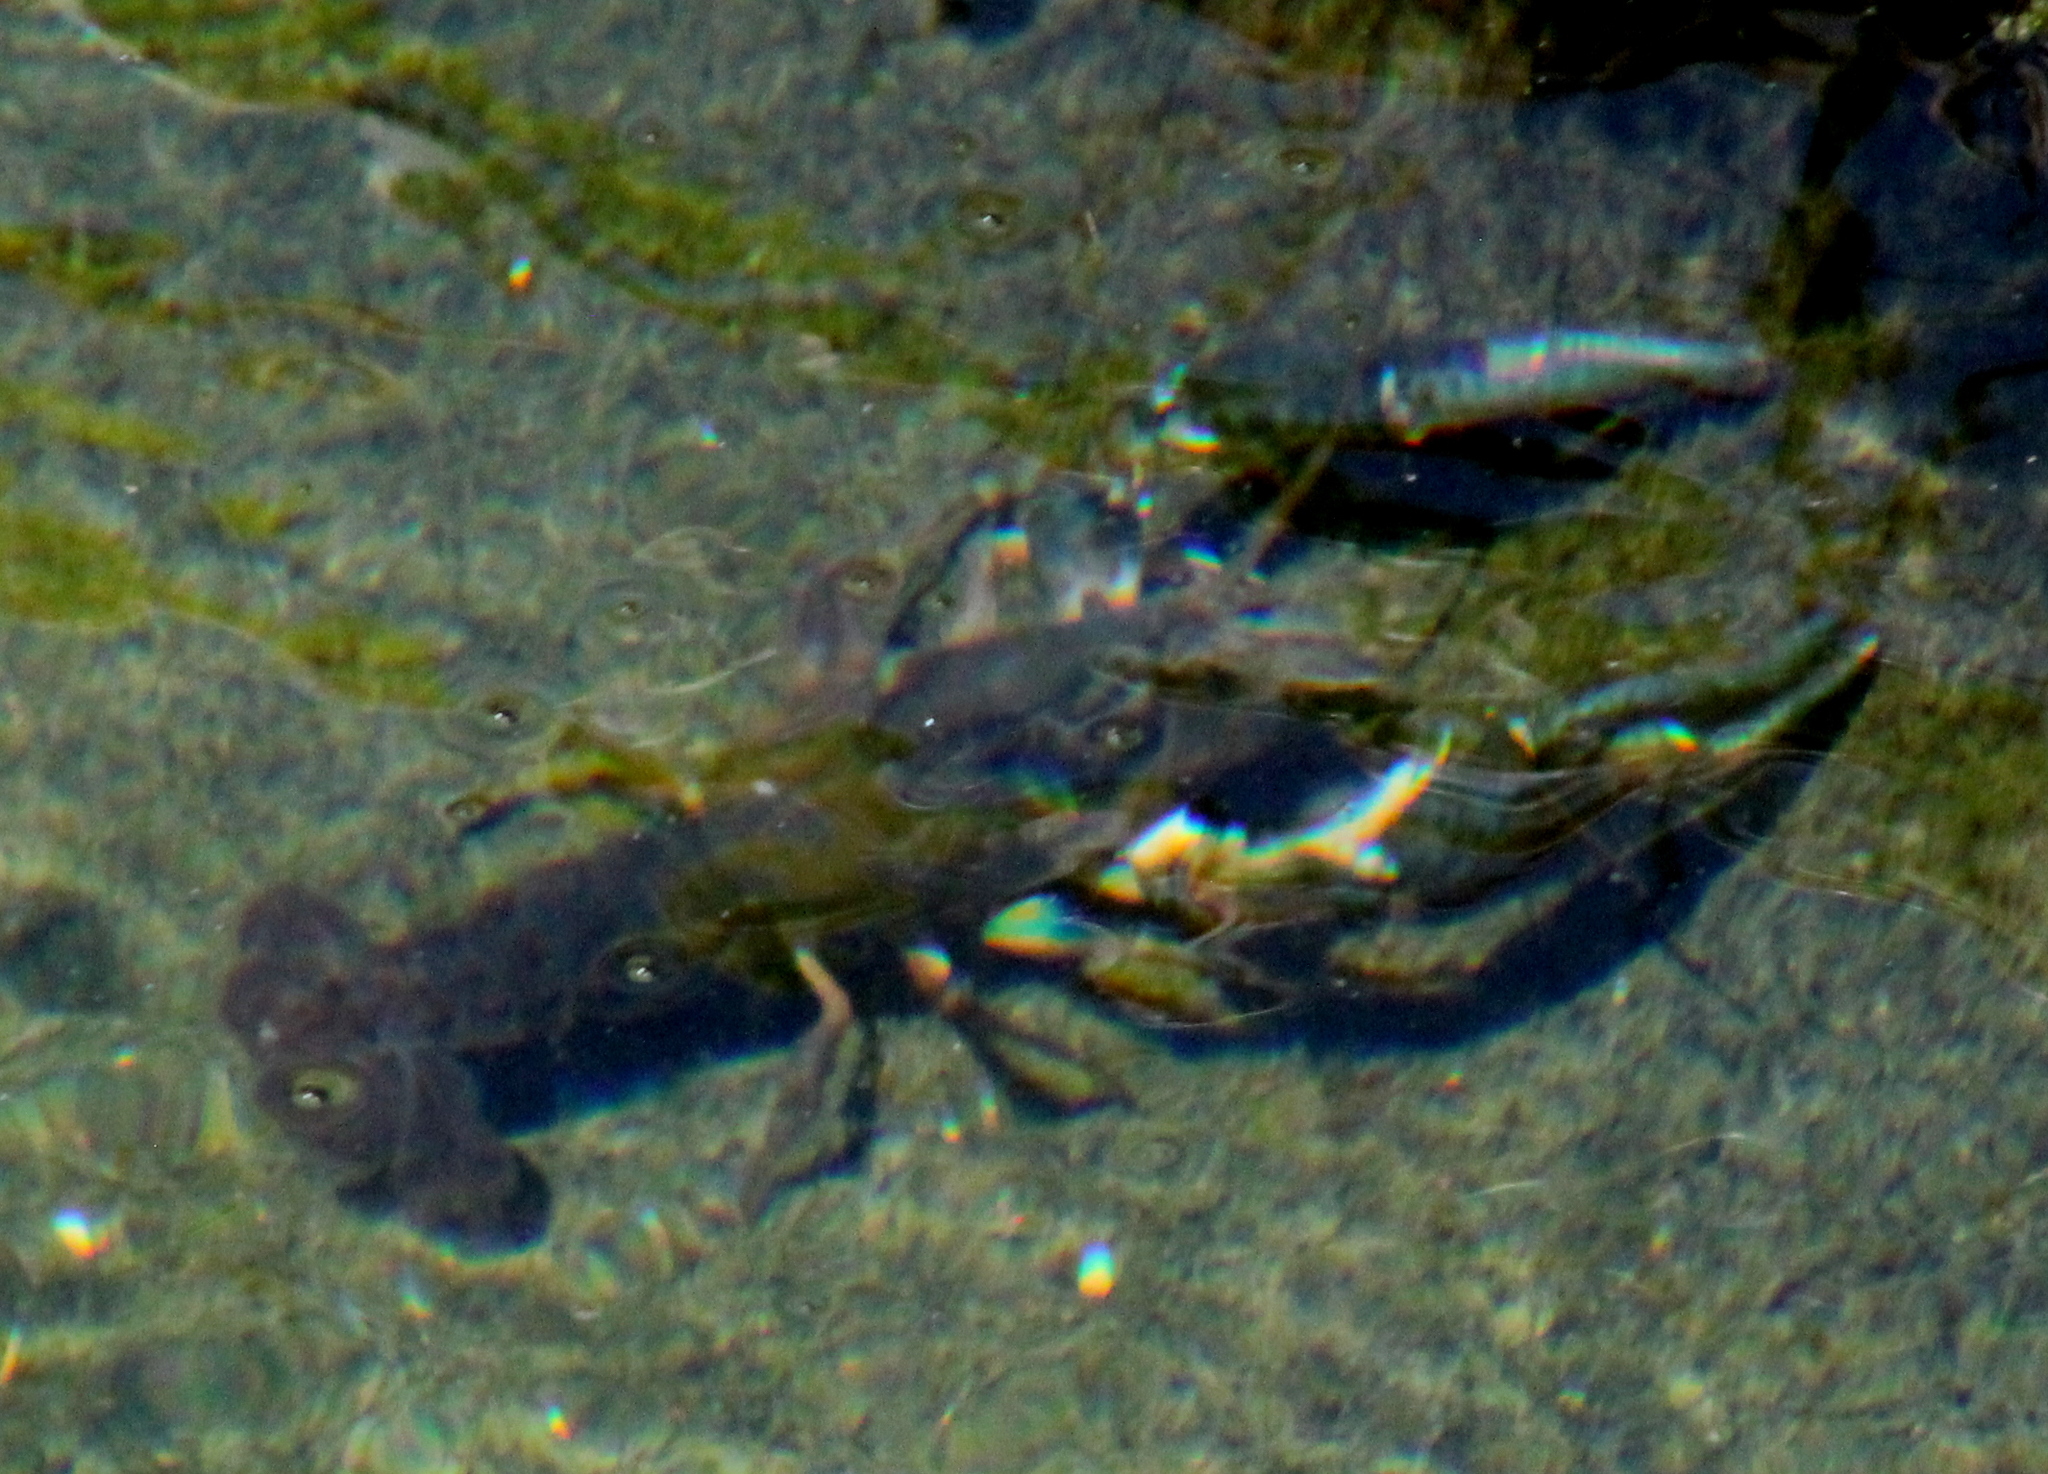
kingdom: Animalia
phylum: Arthropoda
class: Malacostraca
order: Decapoda
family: Cambaridae
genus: Procambarus
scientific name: Procambarus simulans
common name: Southern plains crayfish
